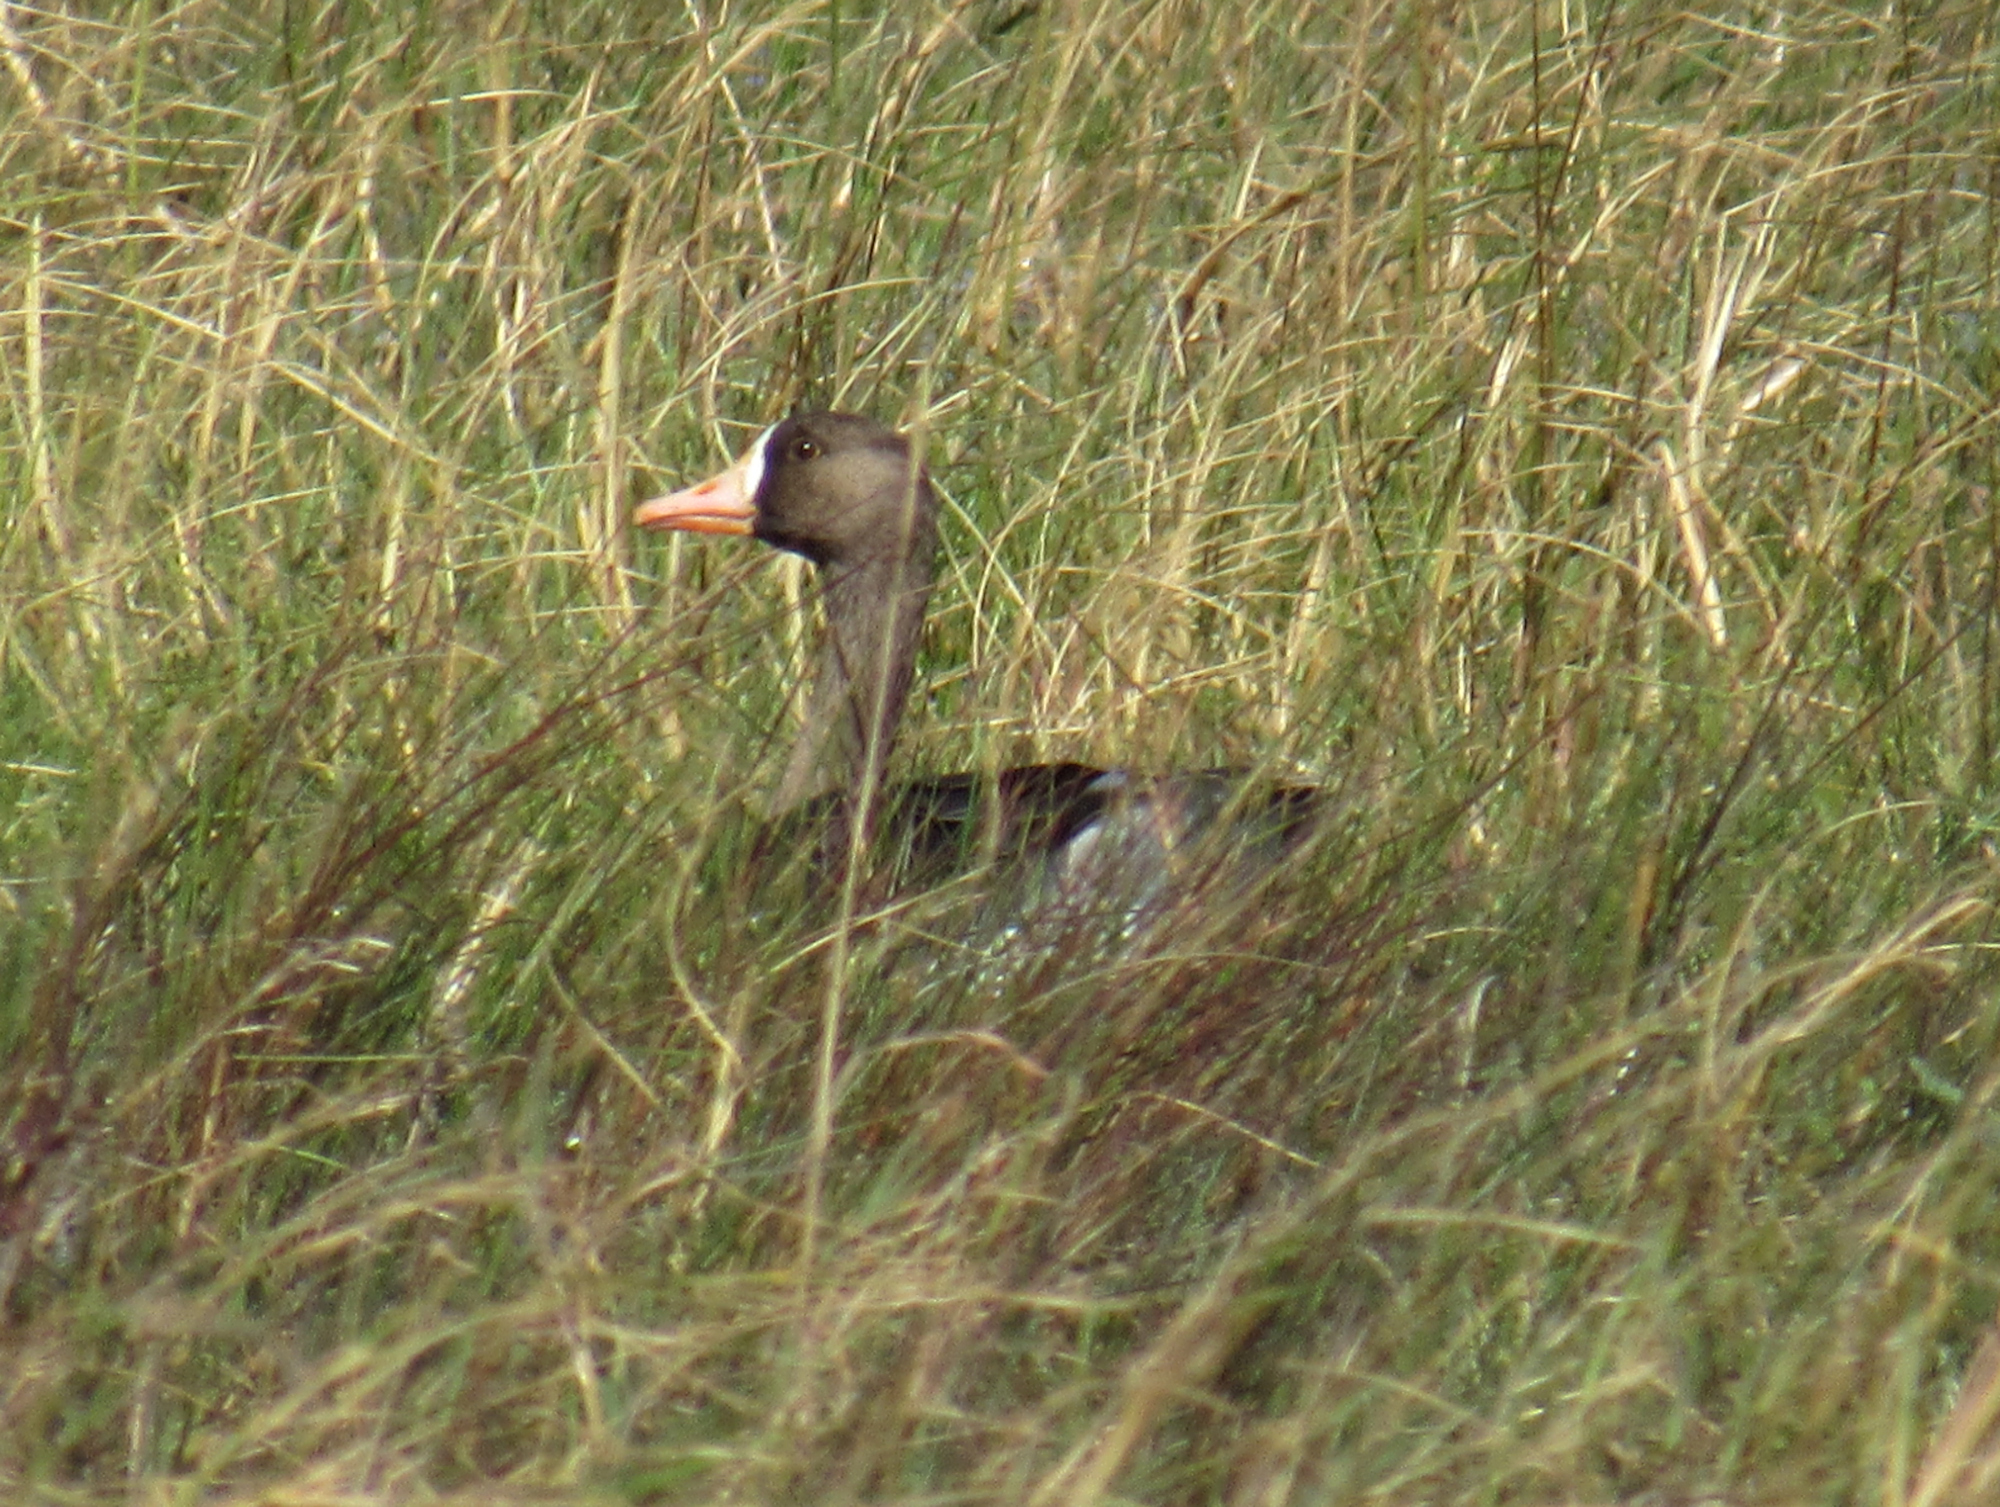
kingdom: Animalia
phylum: Chordata
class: Aves
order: Anseriformes
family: Anatidae
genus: Anser
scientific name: Anser albifrons
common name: Greater white-fronted goose
